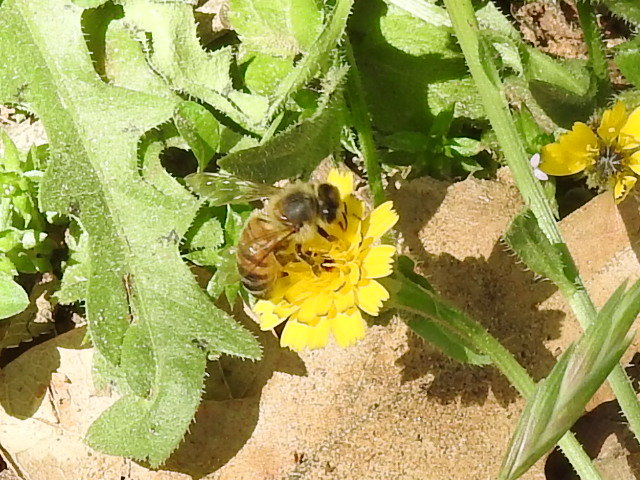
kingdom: Animalia
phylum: Arthropoda
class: Insecta
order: Hymenoptera
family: Apidae
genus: Apis
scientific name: Apis mellifera
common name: Honey bee
